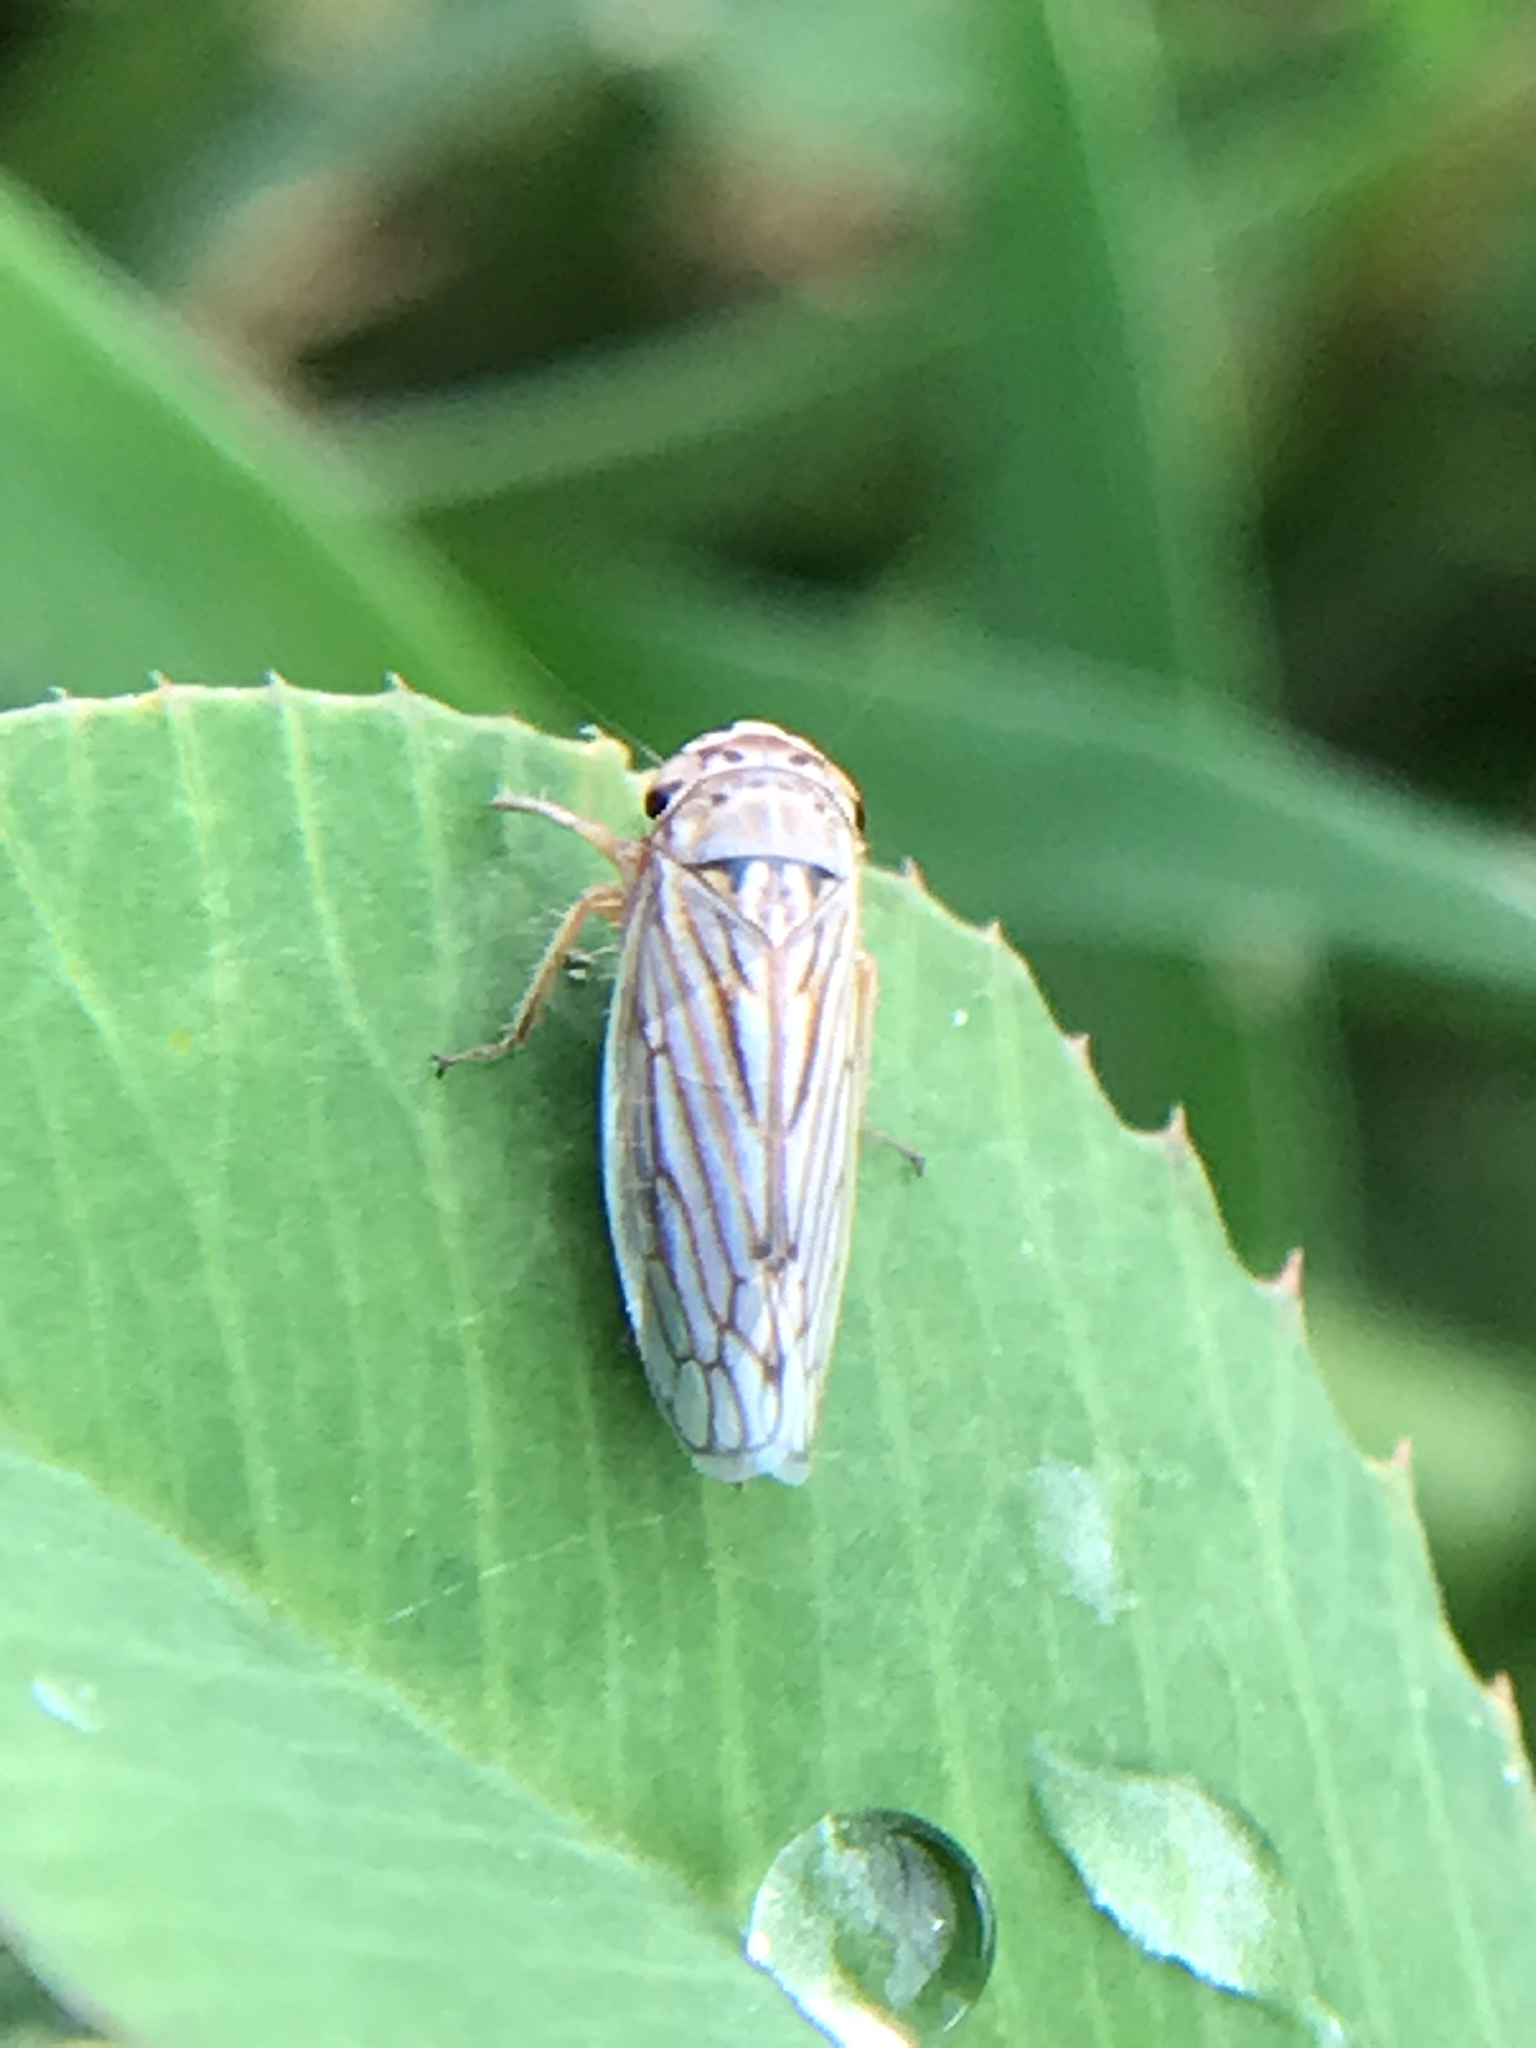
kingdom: Animalia
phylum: Arthropoda
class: Insecta
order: Hemiptera
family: Cicadellidae
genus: Exitianus
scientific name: Exitianus exitiosus
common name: Gray lawn leafhopper
